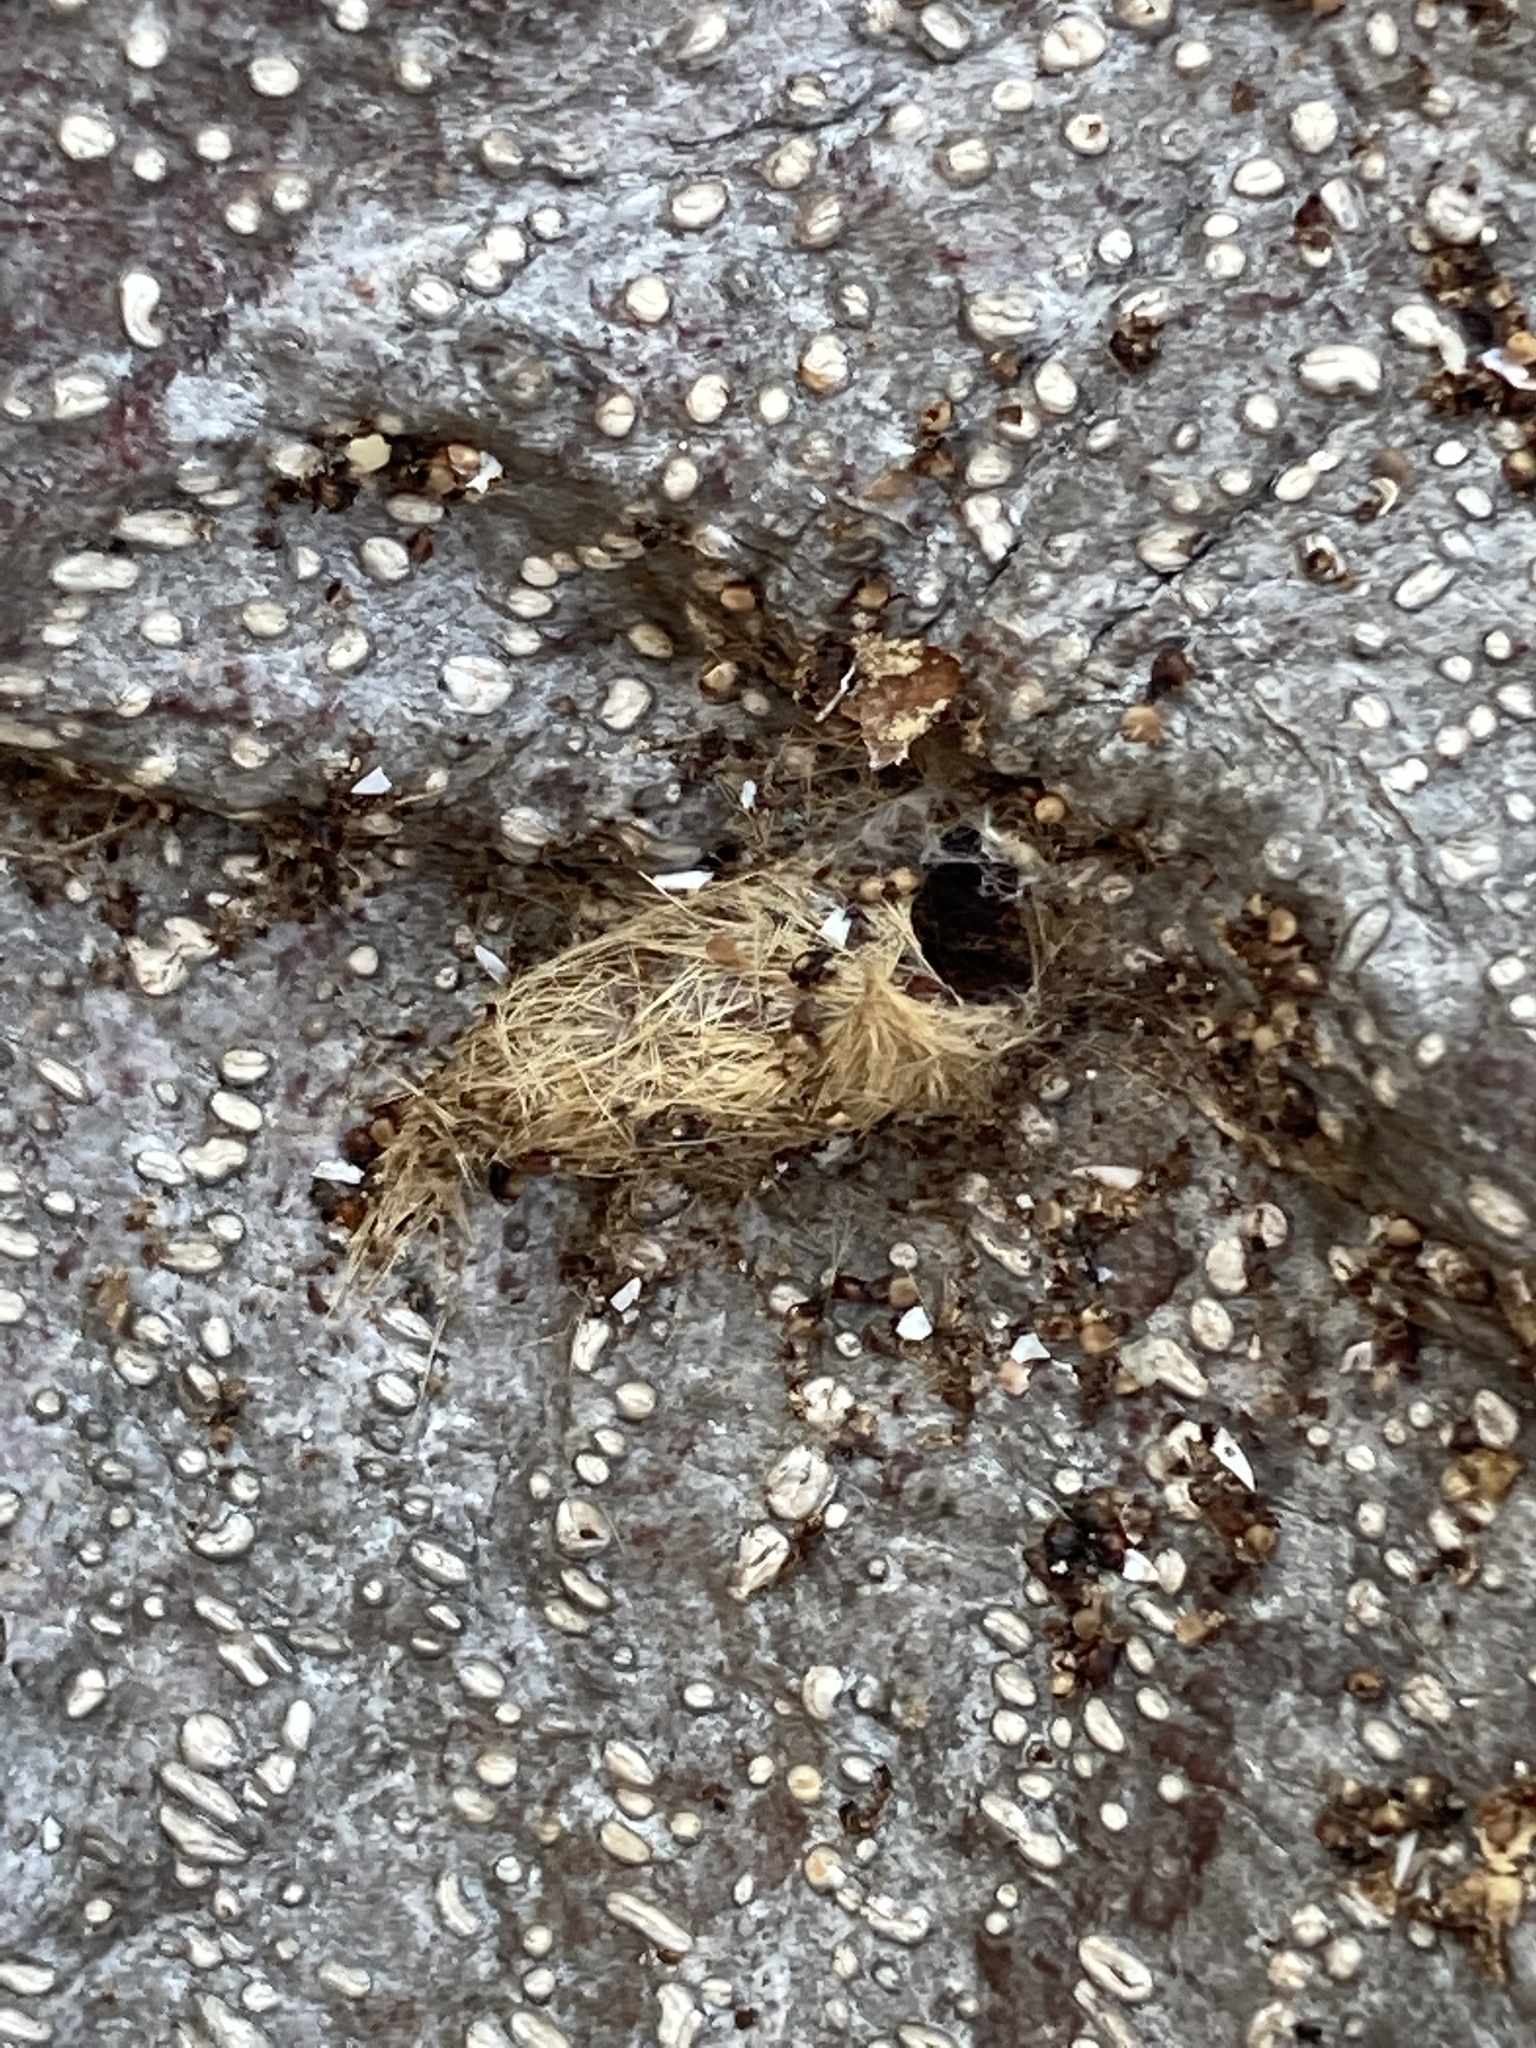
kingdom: Animalia
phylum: Arthropoda
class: Insecta
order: Lepidoptera
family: Erebidae
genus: Lymire
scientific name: Lymire edwardsii
